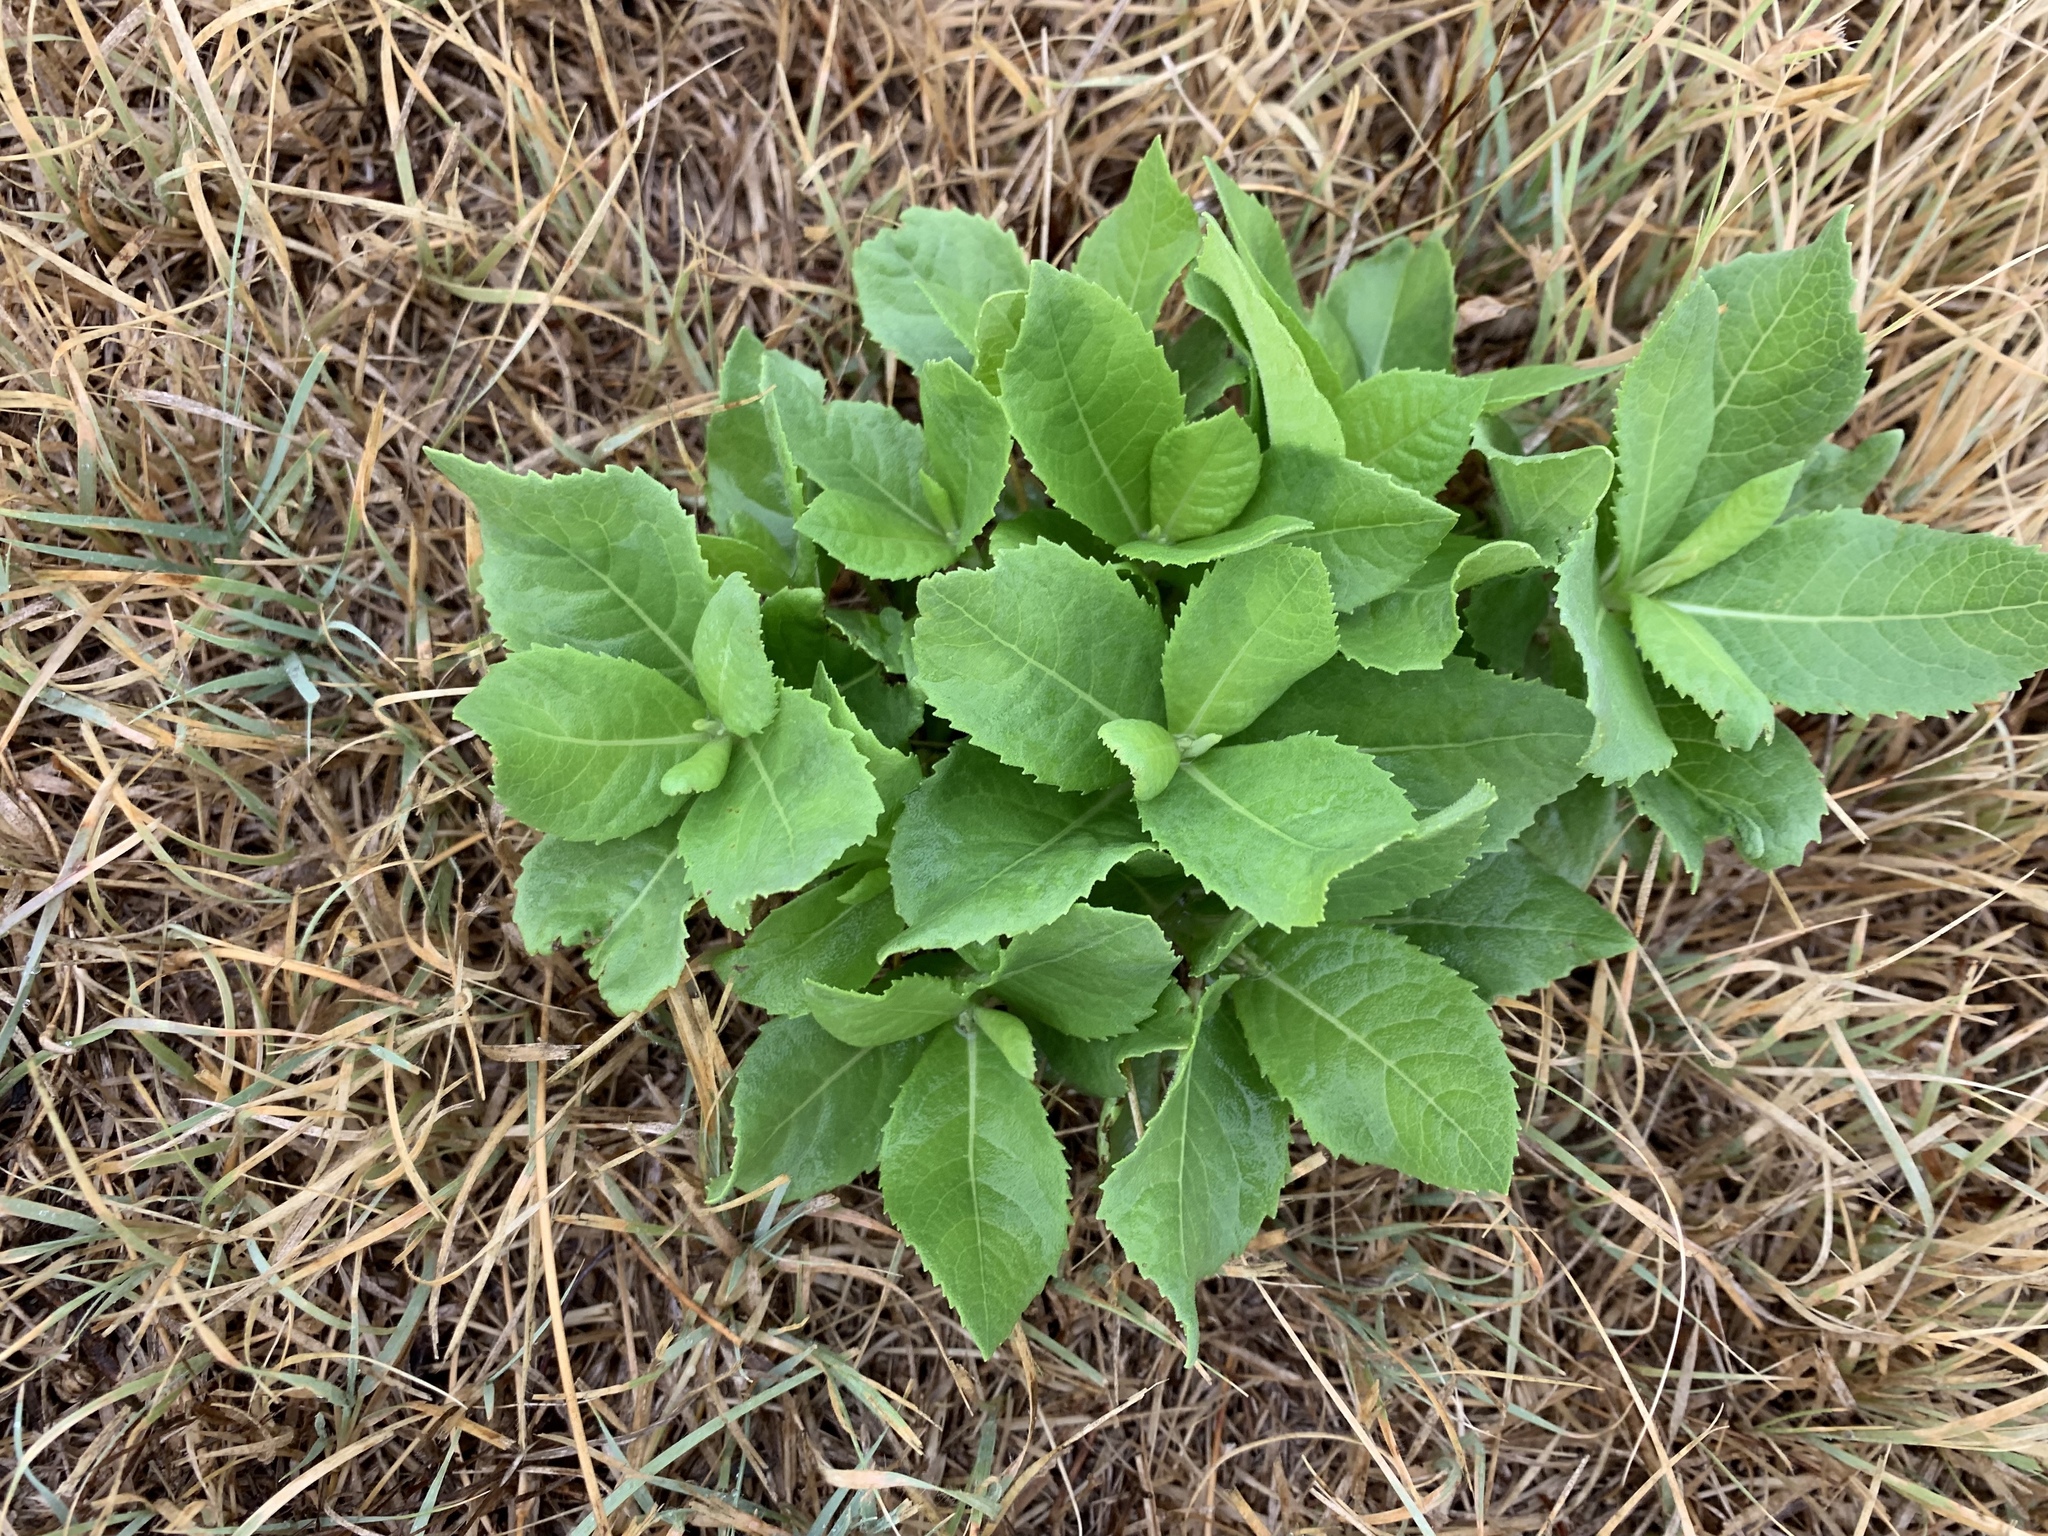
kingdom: Plantae
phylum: Tracheophyta
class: Magnoliopsida
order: Asterales
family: Asteraceae
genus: Vernonia
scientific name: Vernonia baldwinii
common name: Western ironweed
